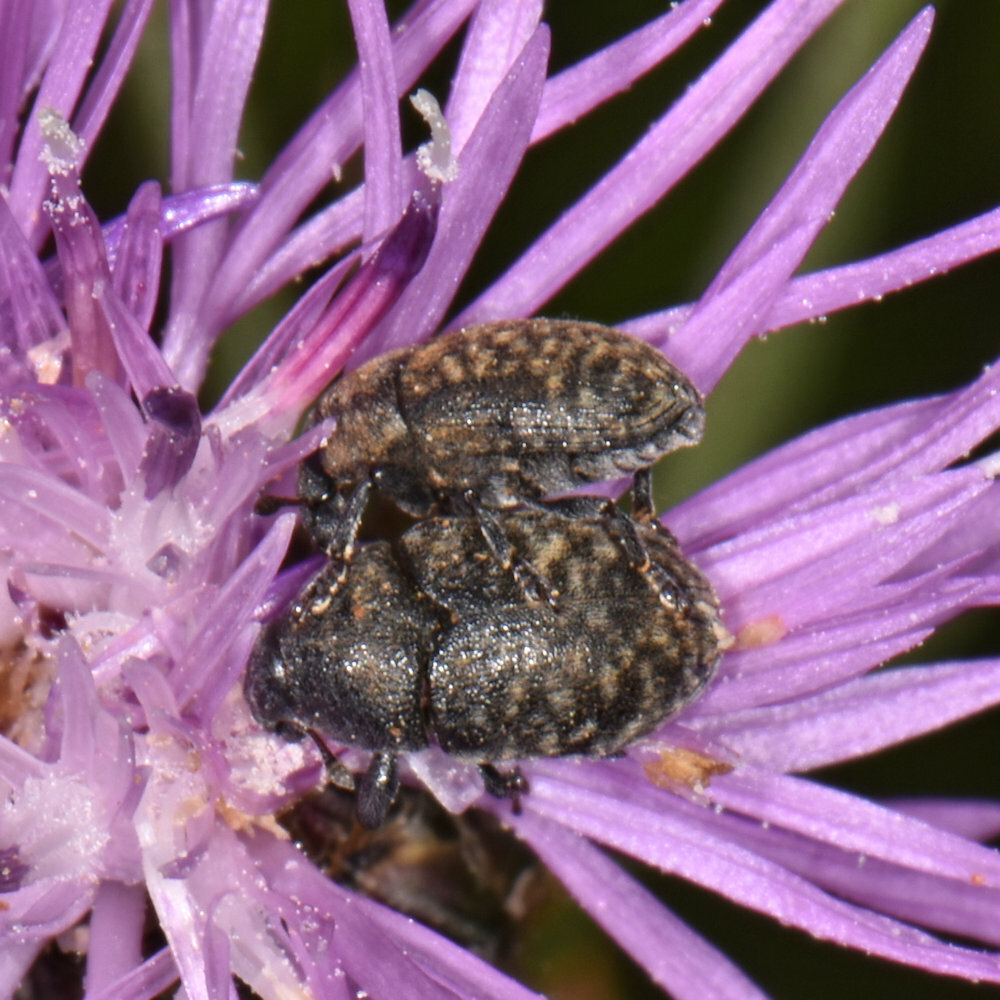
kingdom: Animalia
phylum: Arthropoda
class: Insecta
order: Coleoptera
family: Curculionidae
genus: Larinus
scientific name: Larinus obtusus
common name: Weevil
